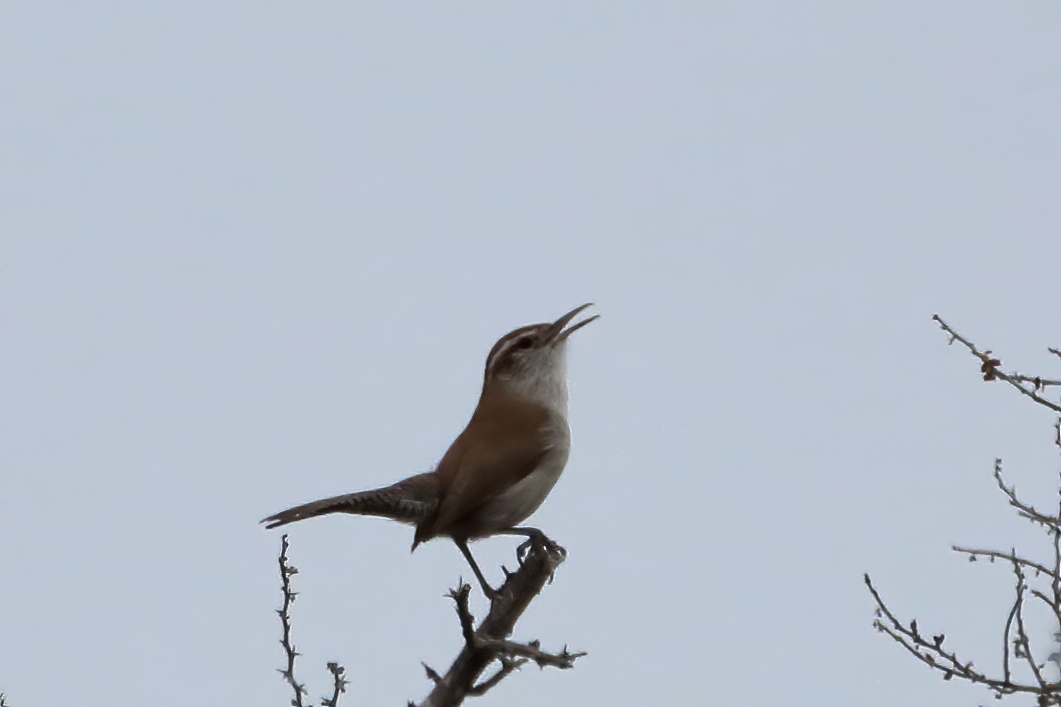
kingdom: Animalia
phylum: Chordata
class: Aves
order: Passeriformes
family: Troglodytidae
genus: Thryomanes
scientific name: Thryomanes bewickii
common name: Bewick's wren
